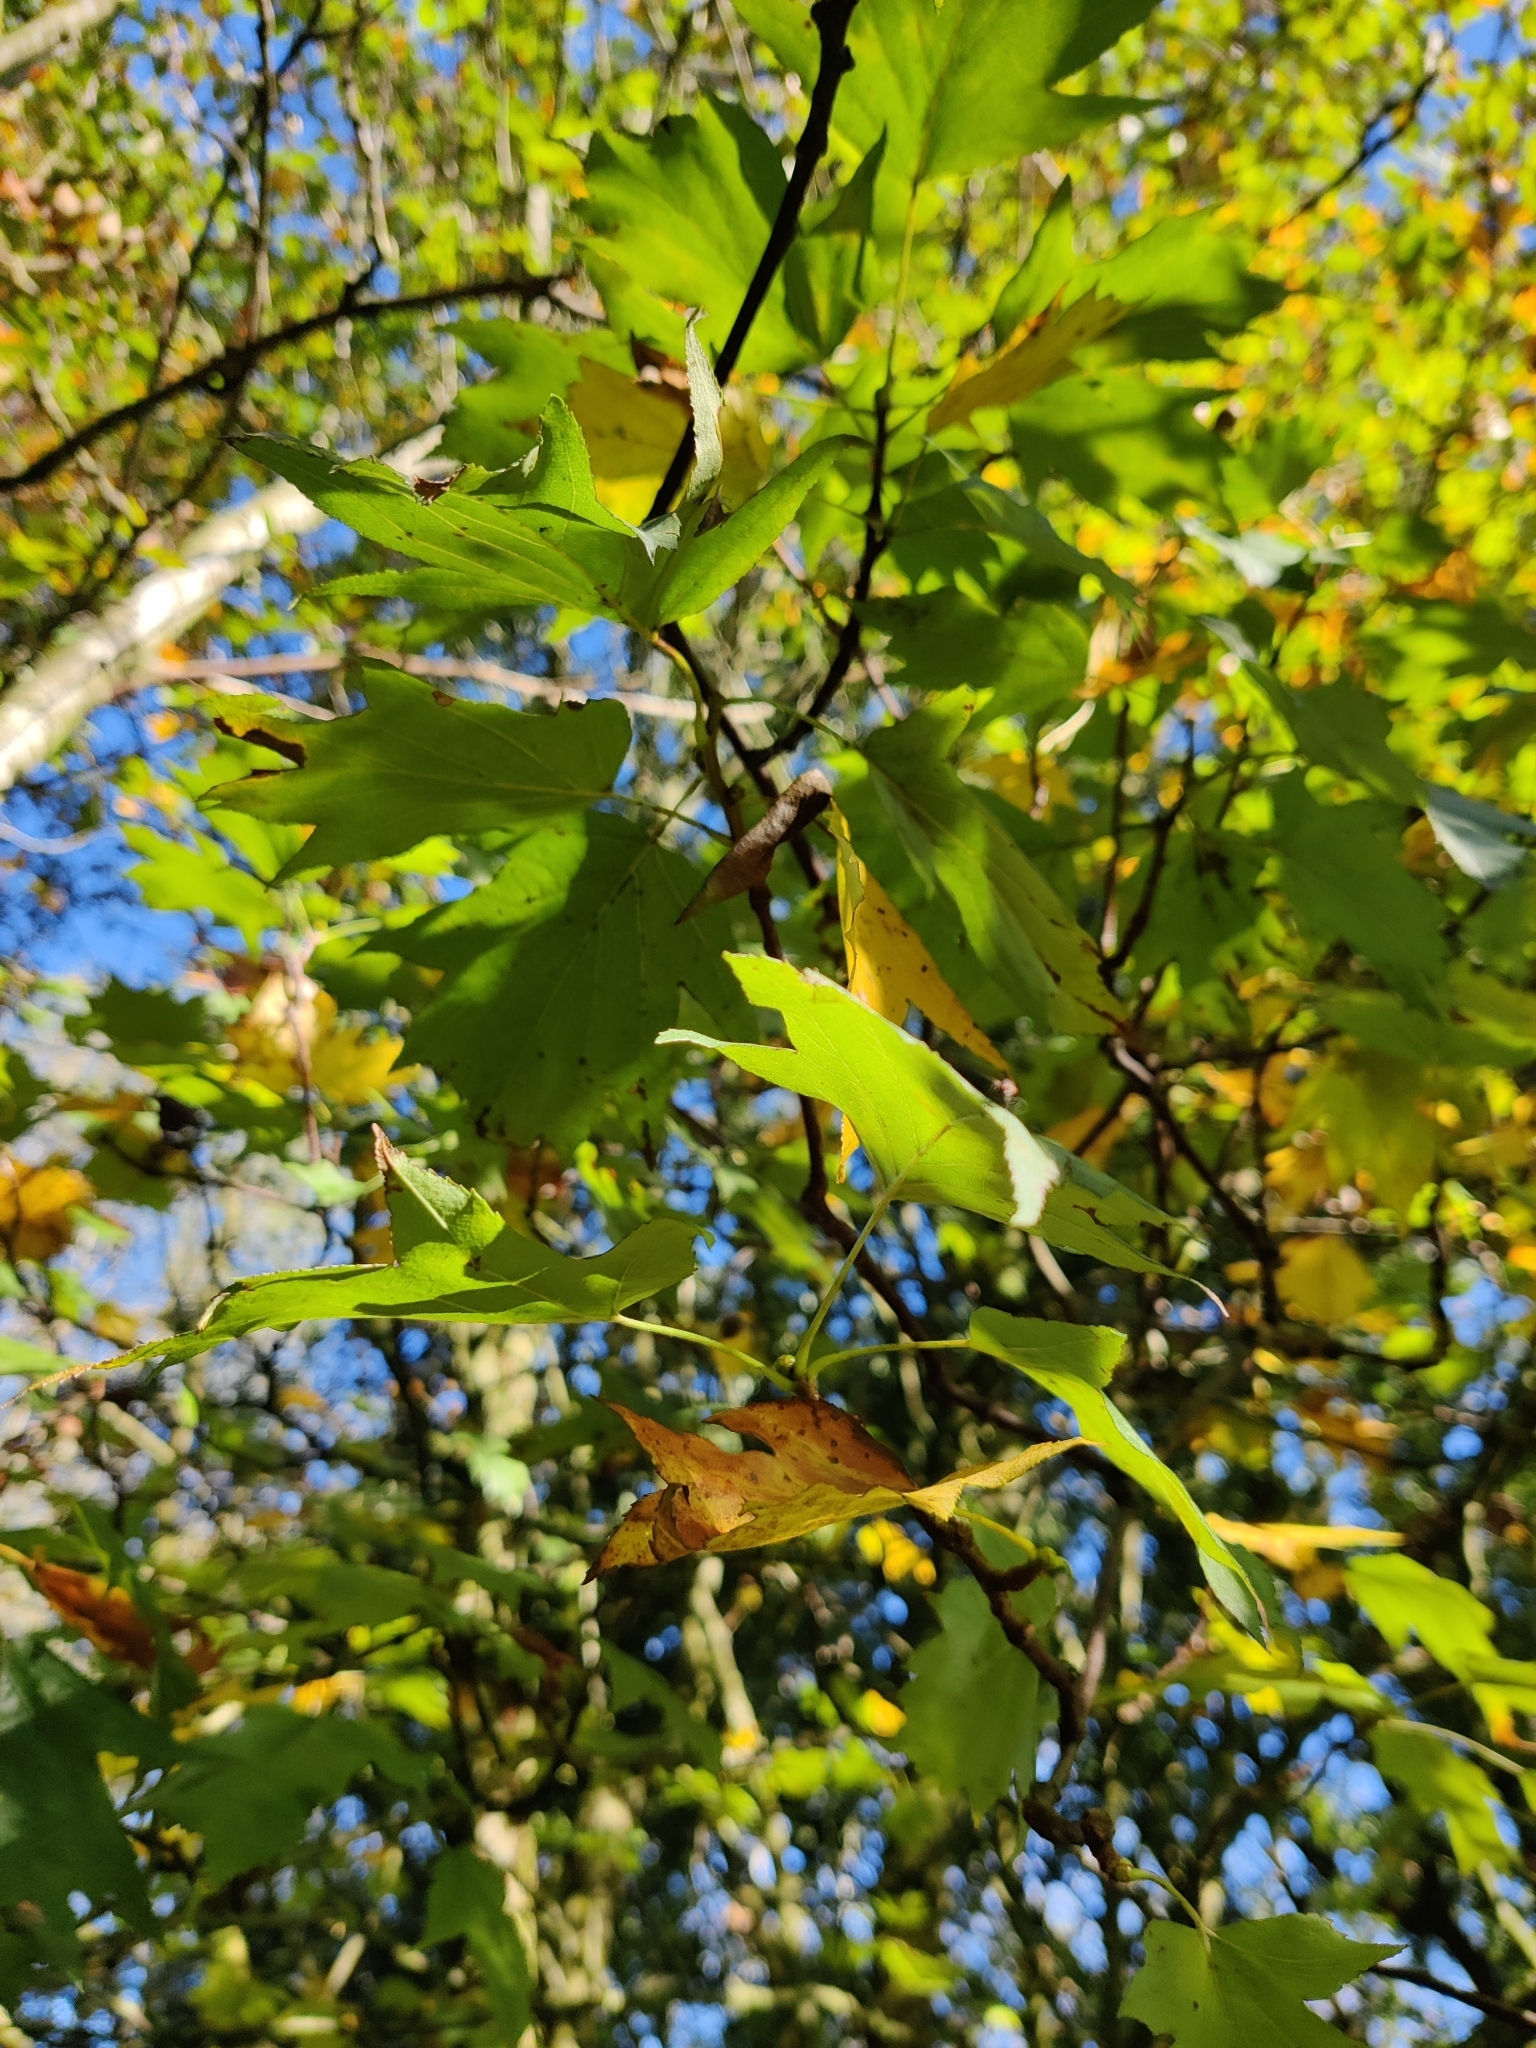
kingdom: Plantae
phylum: Tracheophyta
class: Magnoliopsida
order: Rosales
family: Rosaceae
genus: Torminalis
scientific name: Torminalis glaberrima
